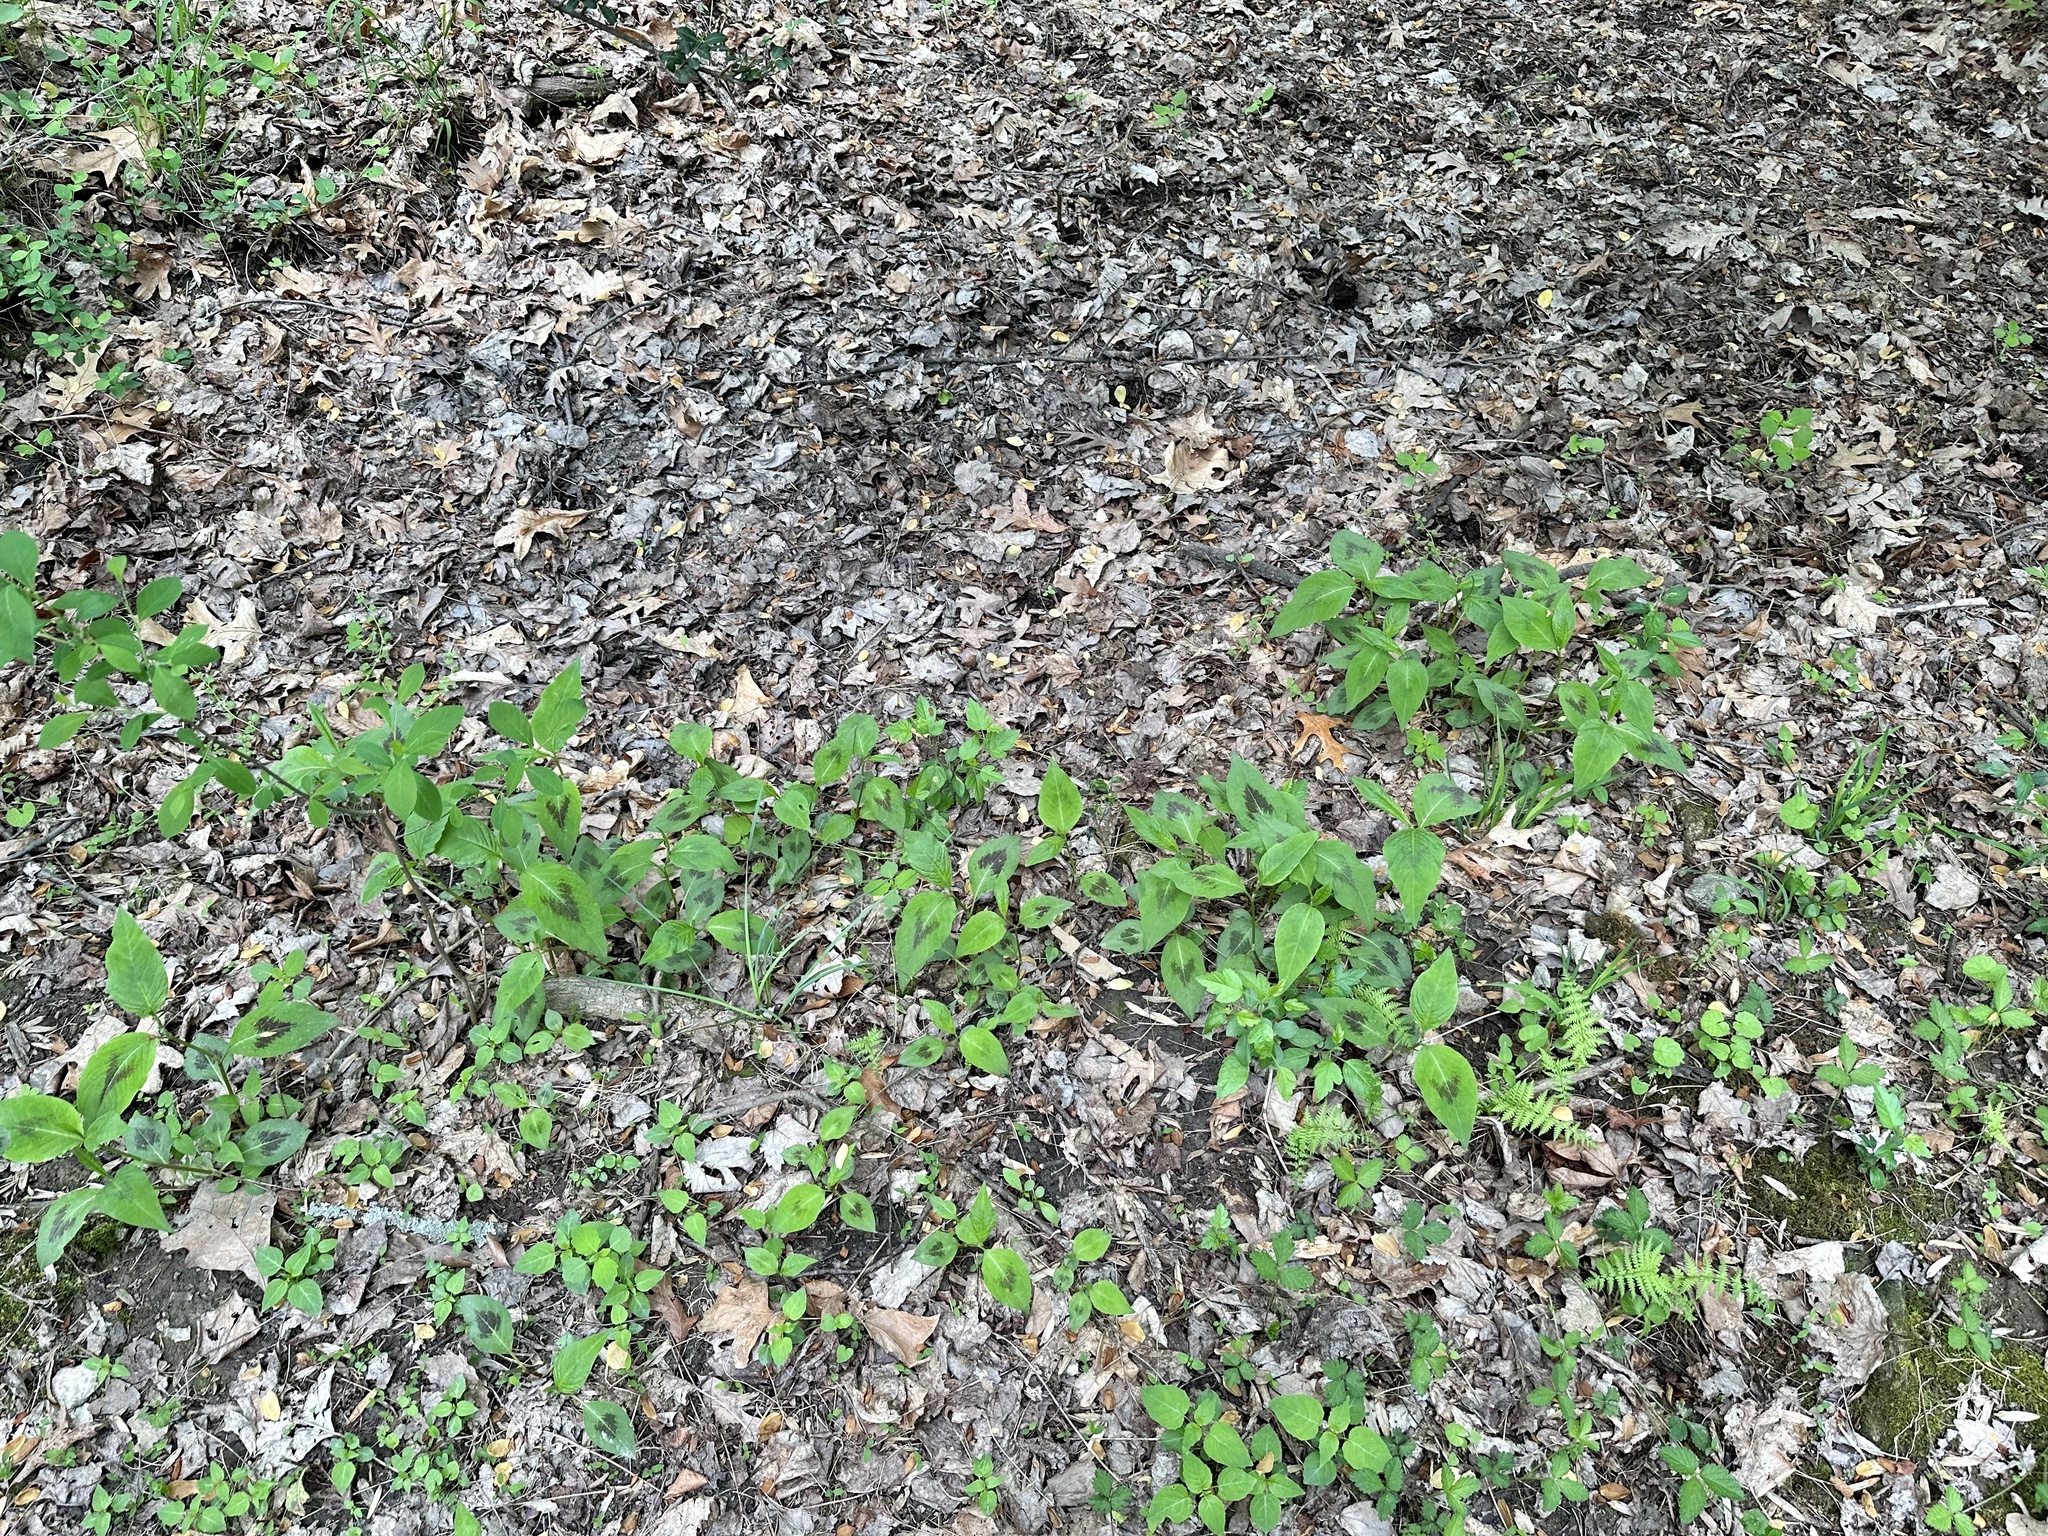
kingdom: Plantae
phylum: Tracheophyta
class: Magnoliopsida
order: Caryophyllales
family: Polygonaceae
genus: Persicaria
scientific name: Persicaria virginiana
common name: Jumpseed
